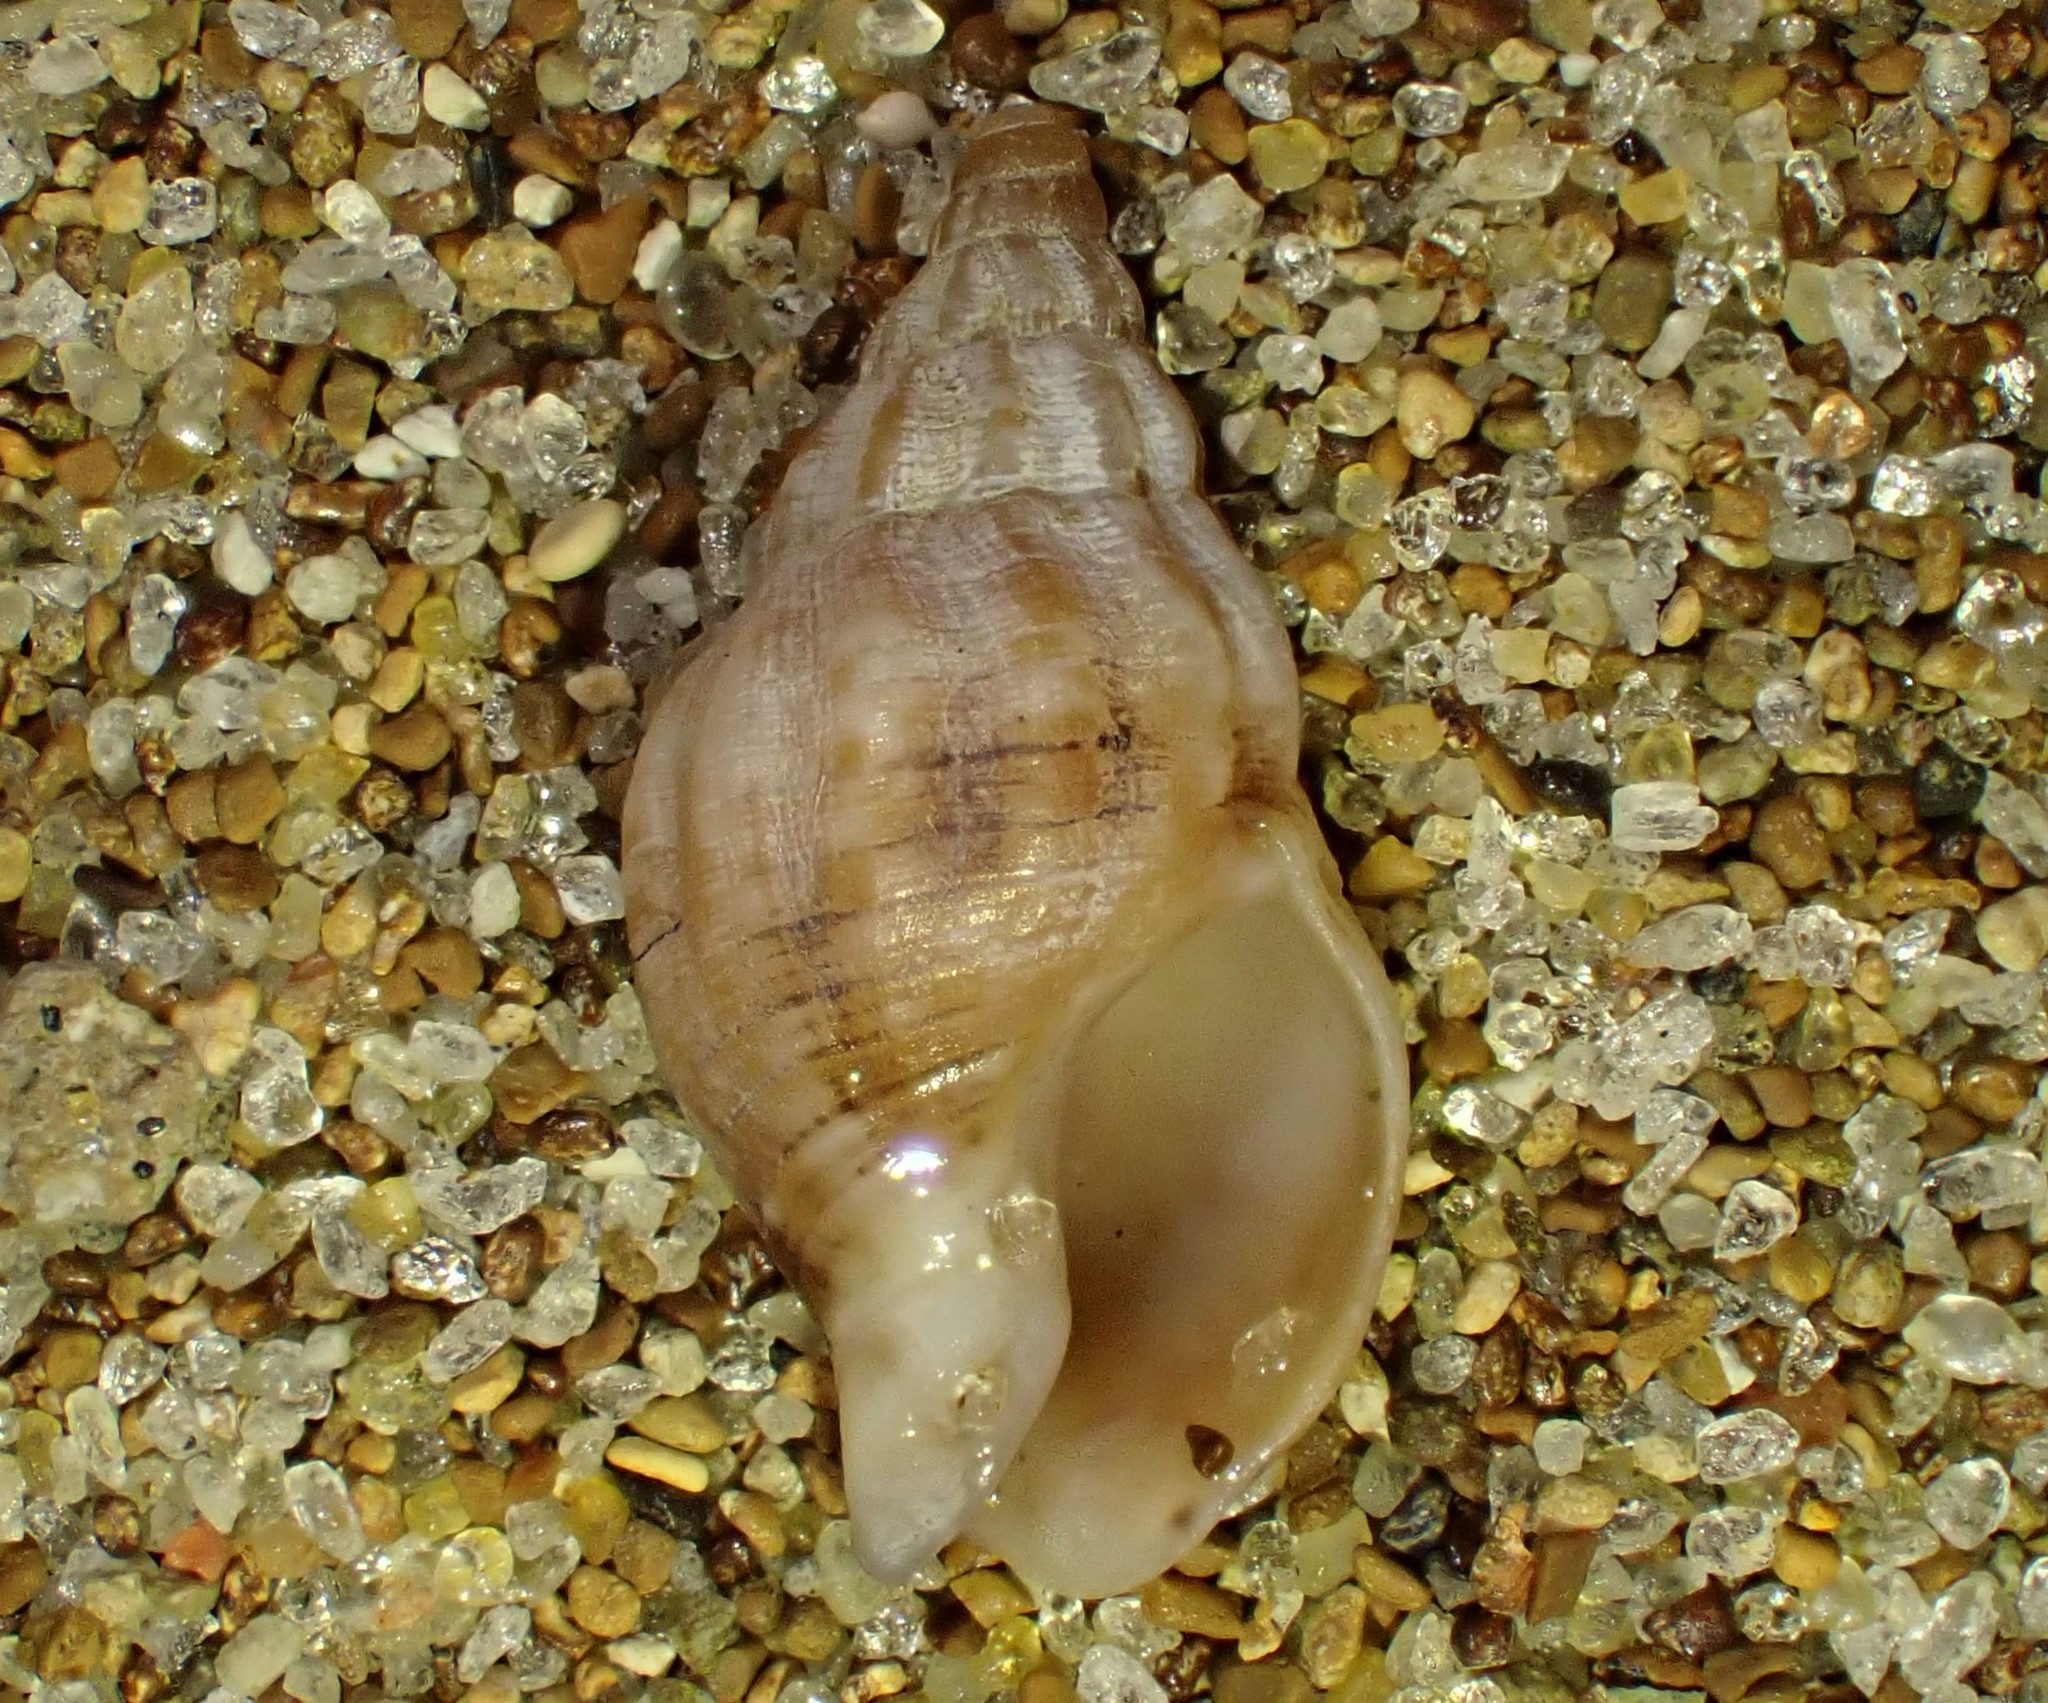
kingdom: Animalia
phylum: Mollusca
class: Gastropoda
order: Neogastropoda
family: Cominellidae
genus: Cominella
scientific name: Cominella accuminata
